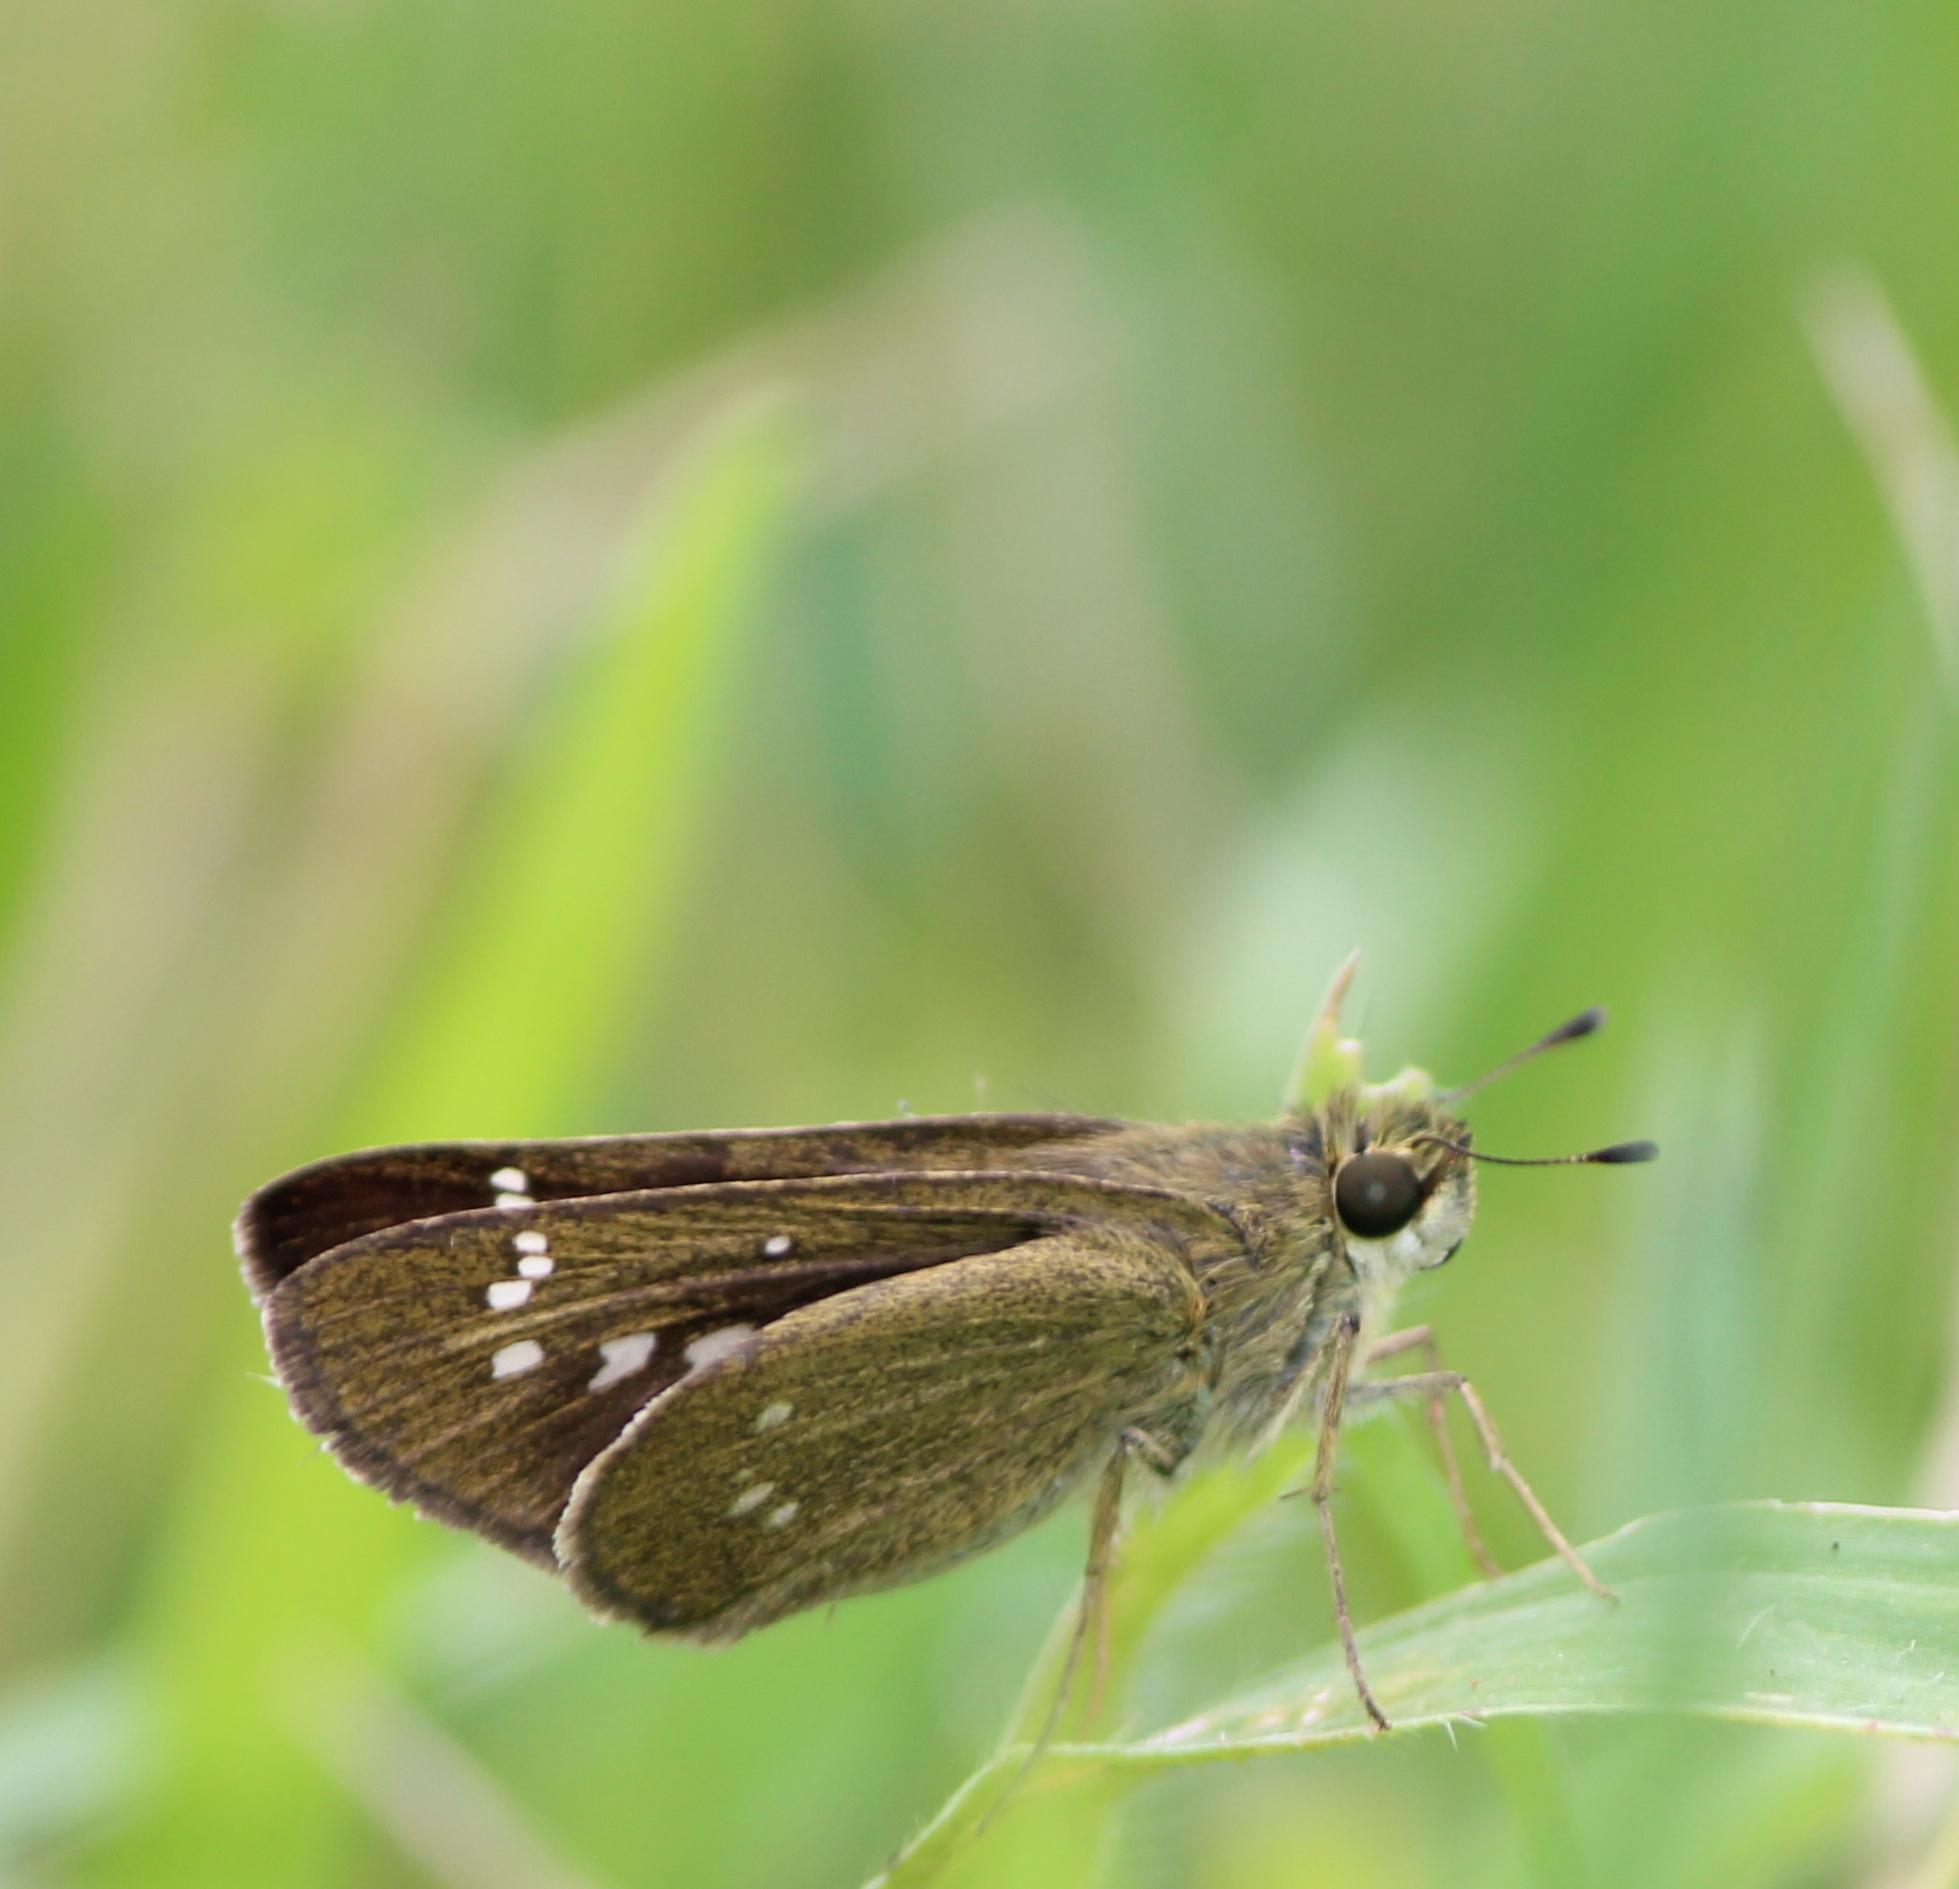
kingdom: Animalia
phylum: Arthropoda
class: Insecta
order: Lepidoptera
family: Hesperiidae
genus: Borbo
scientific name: Borbo cinnara
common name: Formosan swift
